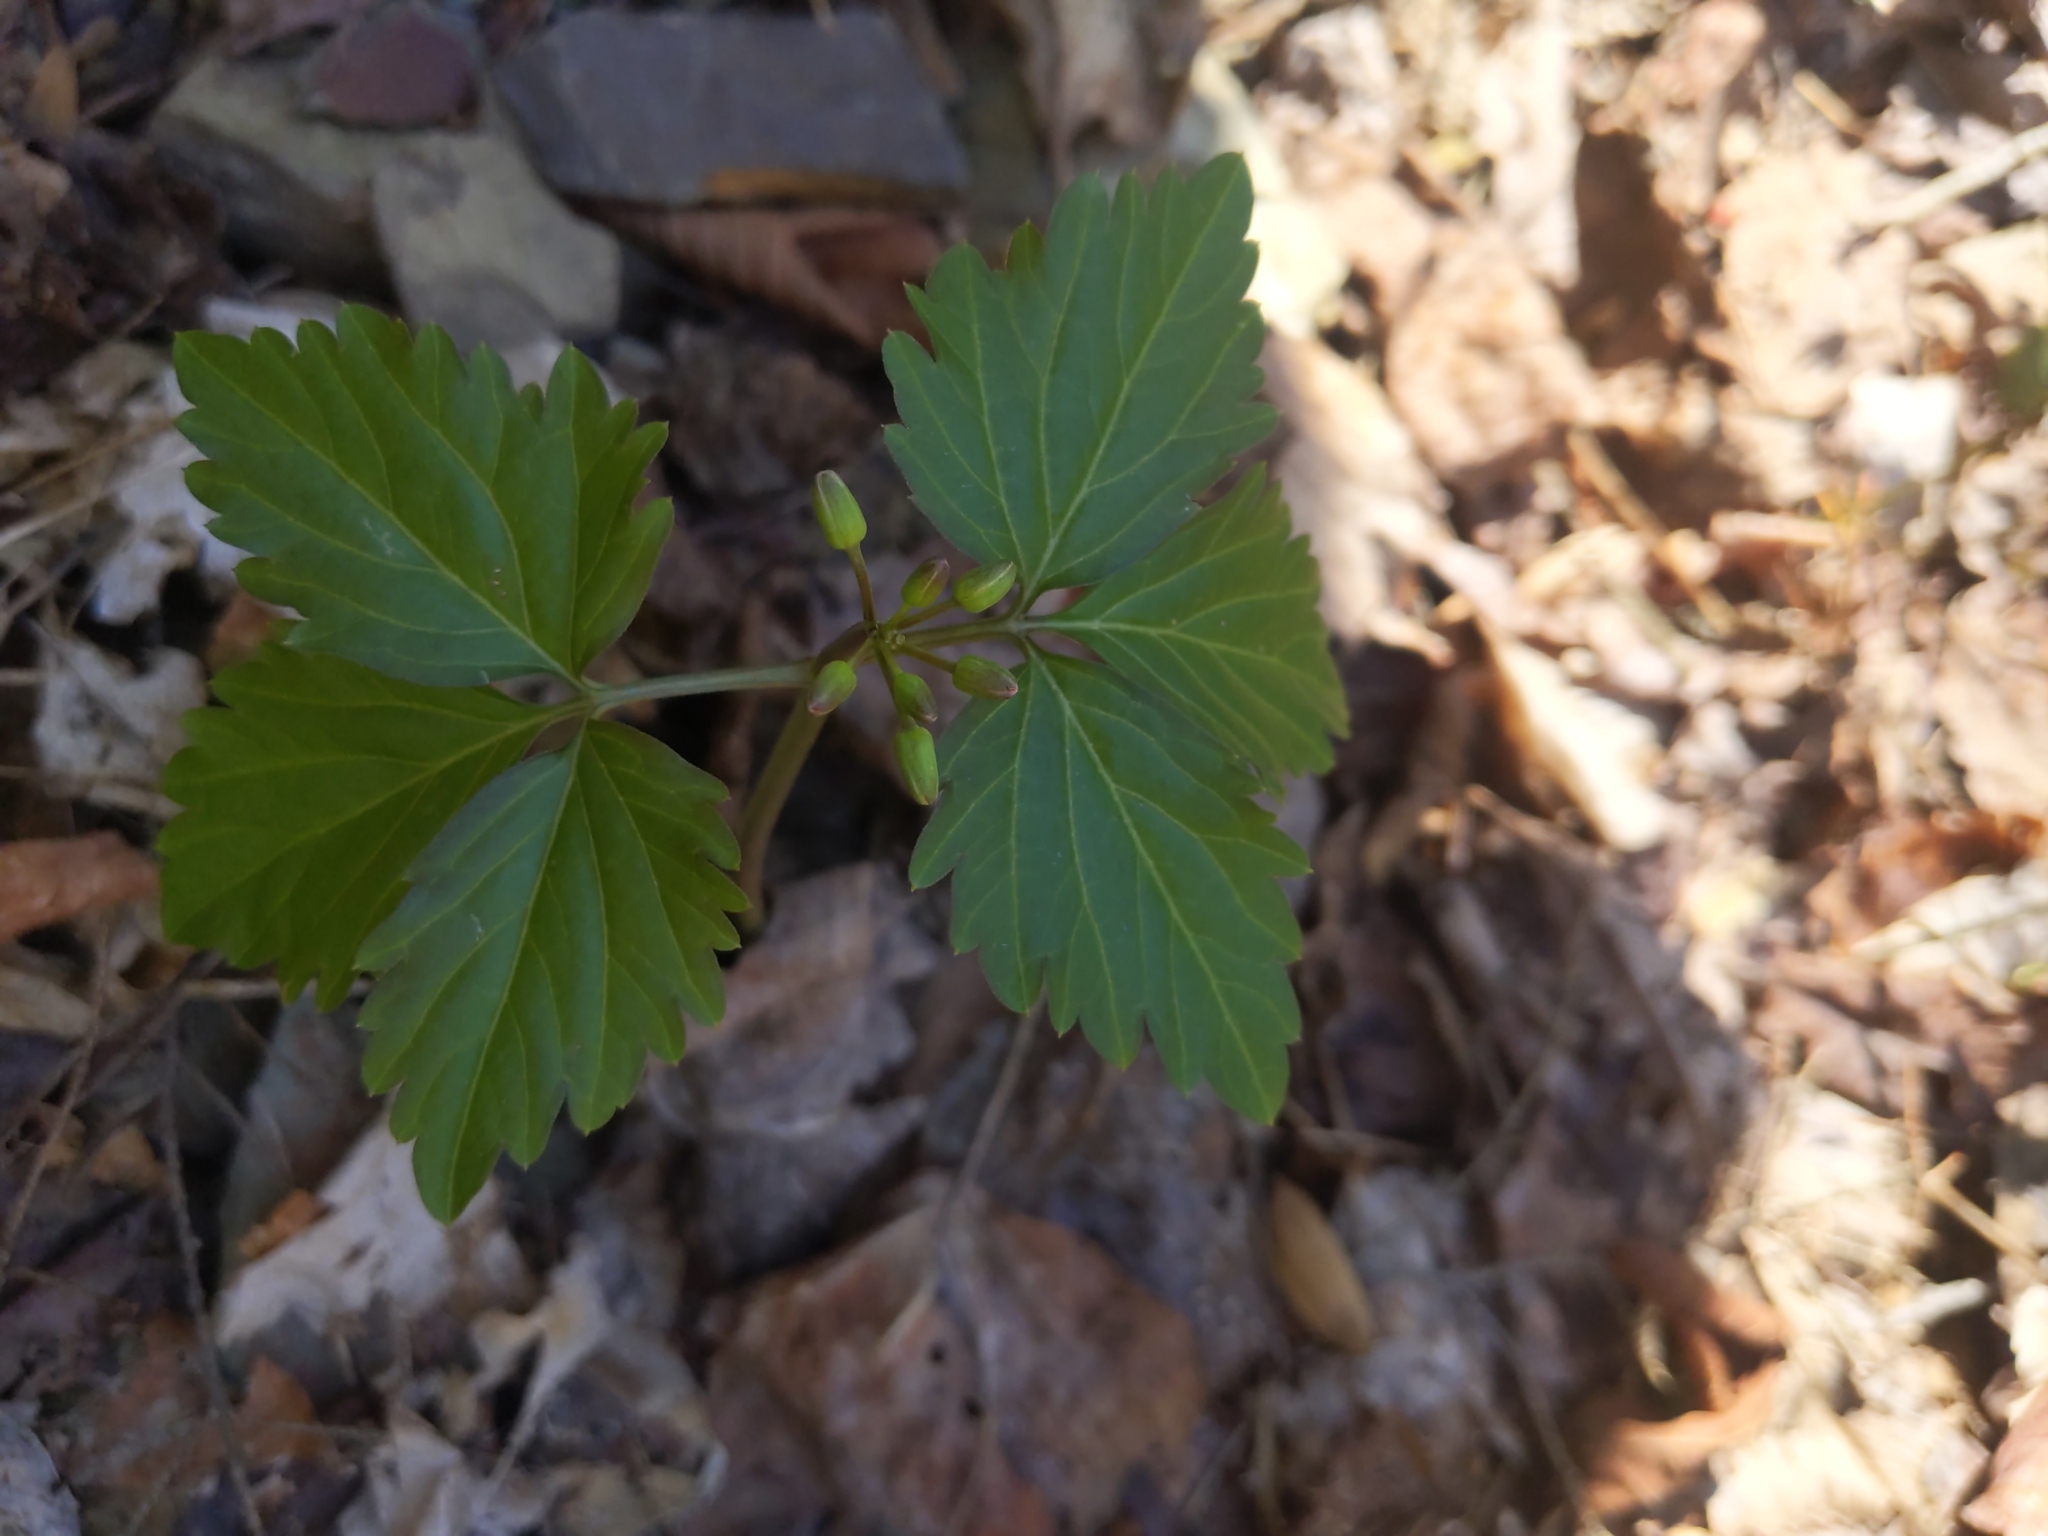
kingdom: Plantae
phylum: Tracheophyta
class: Magnoliopsida
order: Brassicales
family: Brassicaceae
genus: Cardamine
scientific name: Cardamine diphylla
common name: Broad-leaved toothwort
